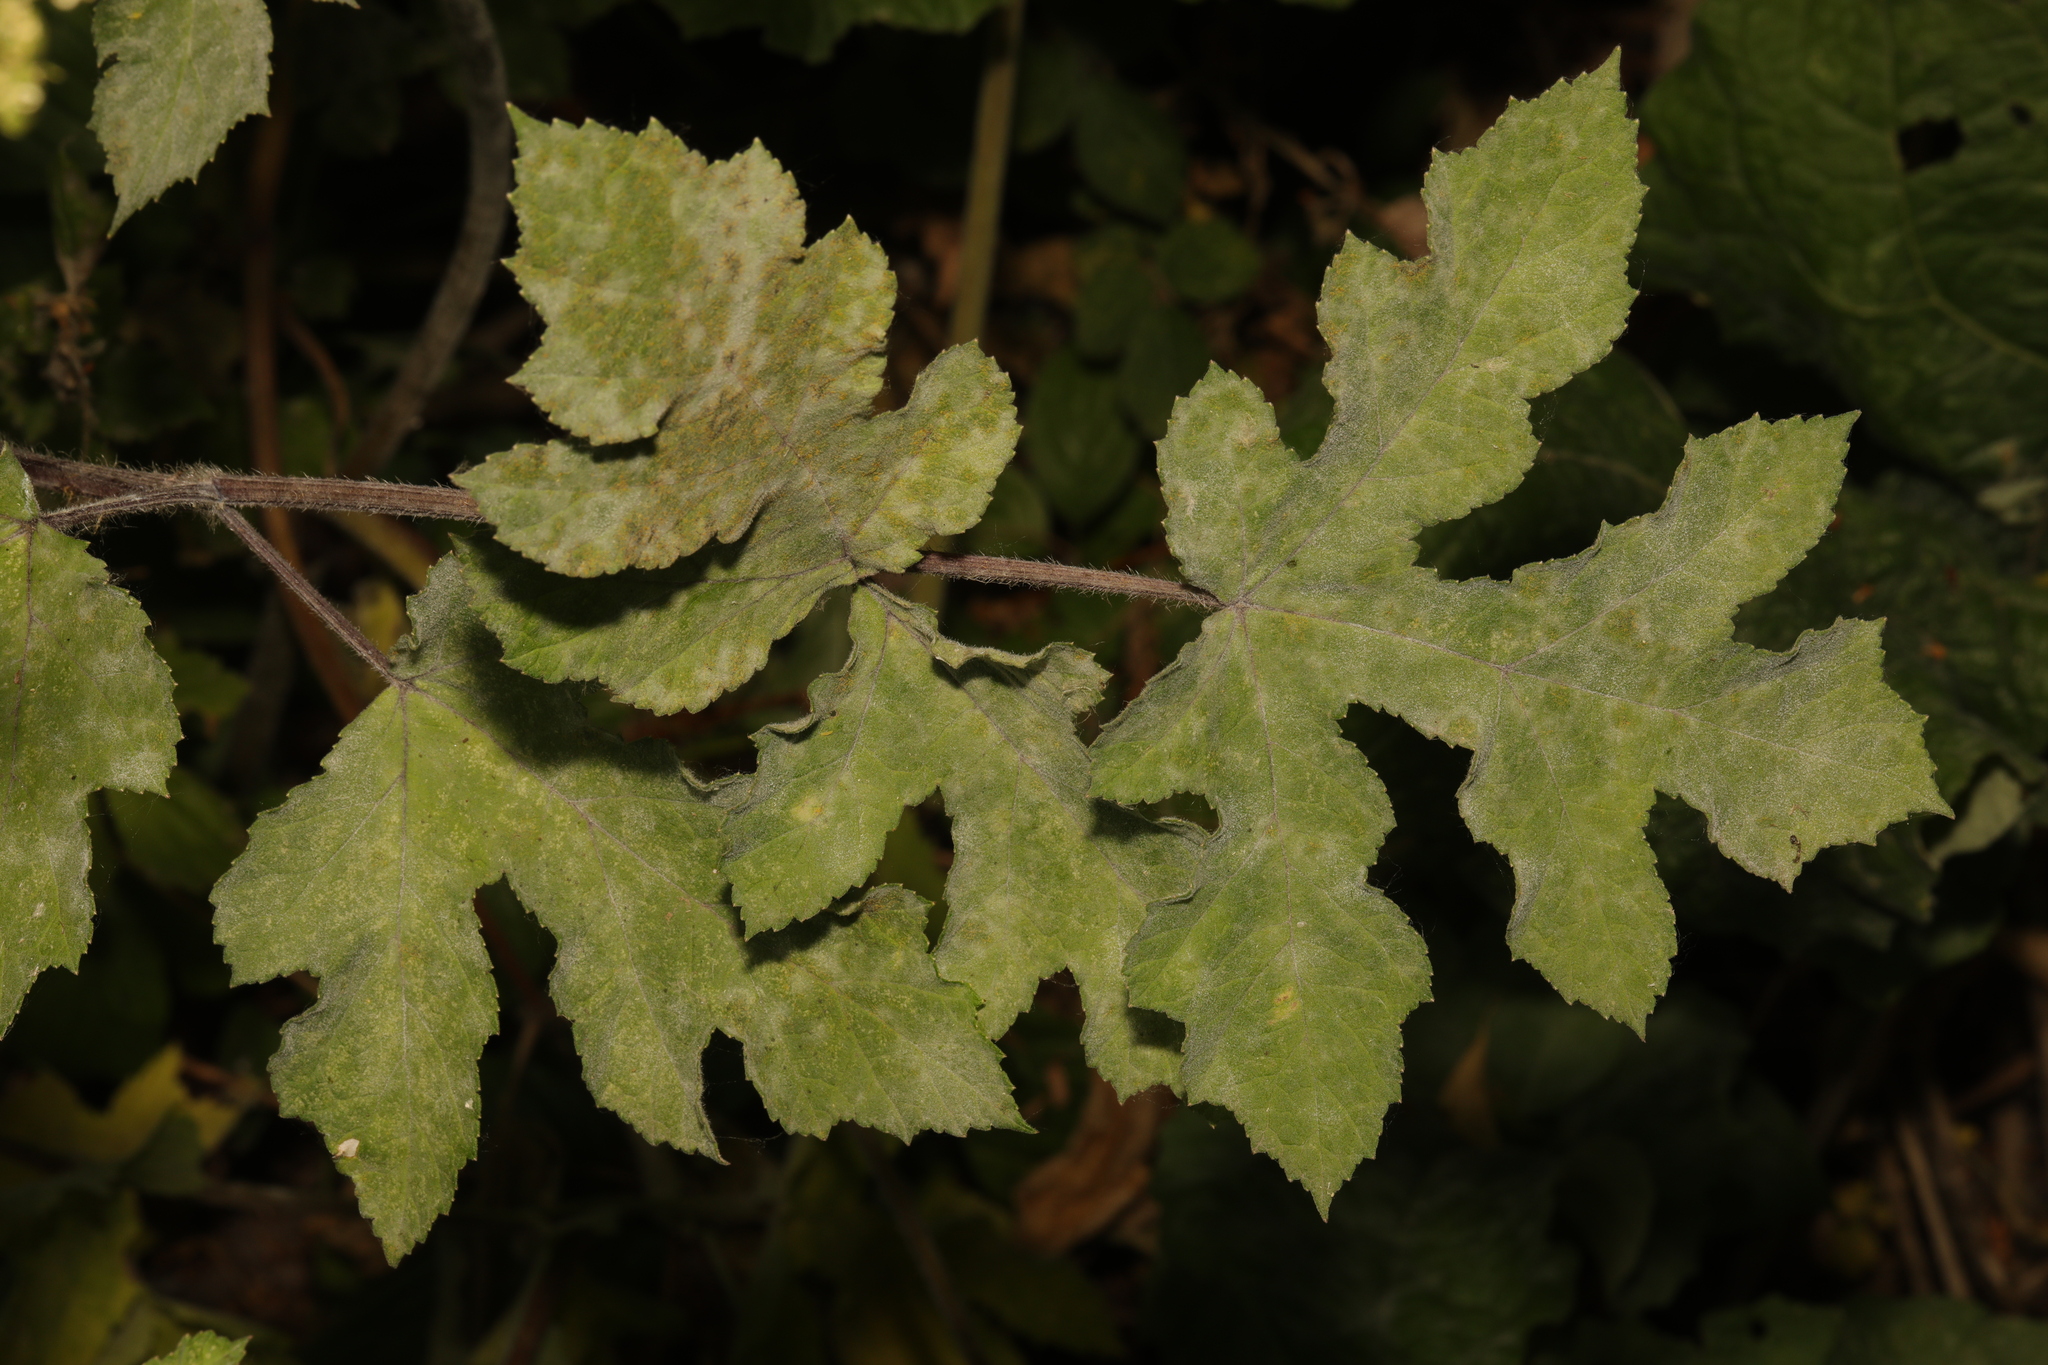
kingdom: Plantae
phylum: Tracheophyta
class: Magnoliopsida
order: Apiales
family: Apiaceae
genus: Heracleum
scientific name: Heracleum sphondylium
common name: Hogweed
